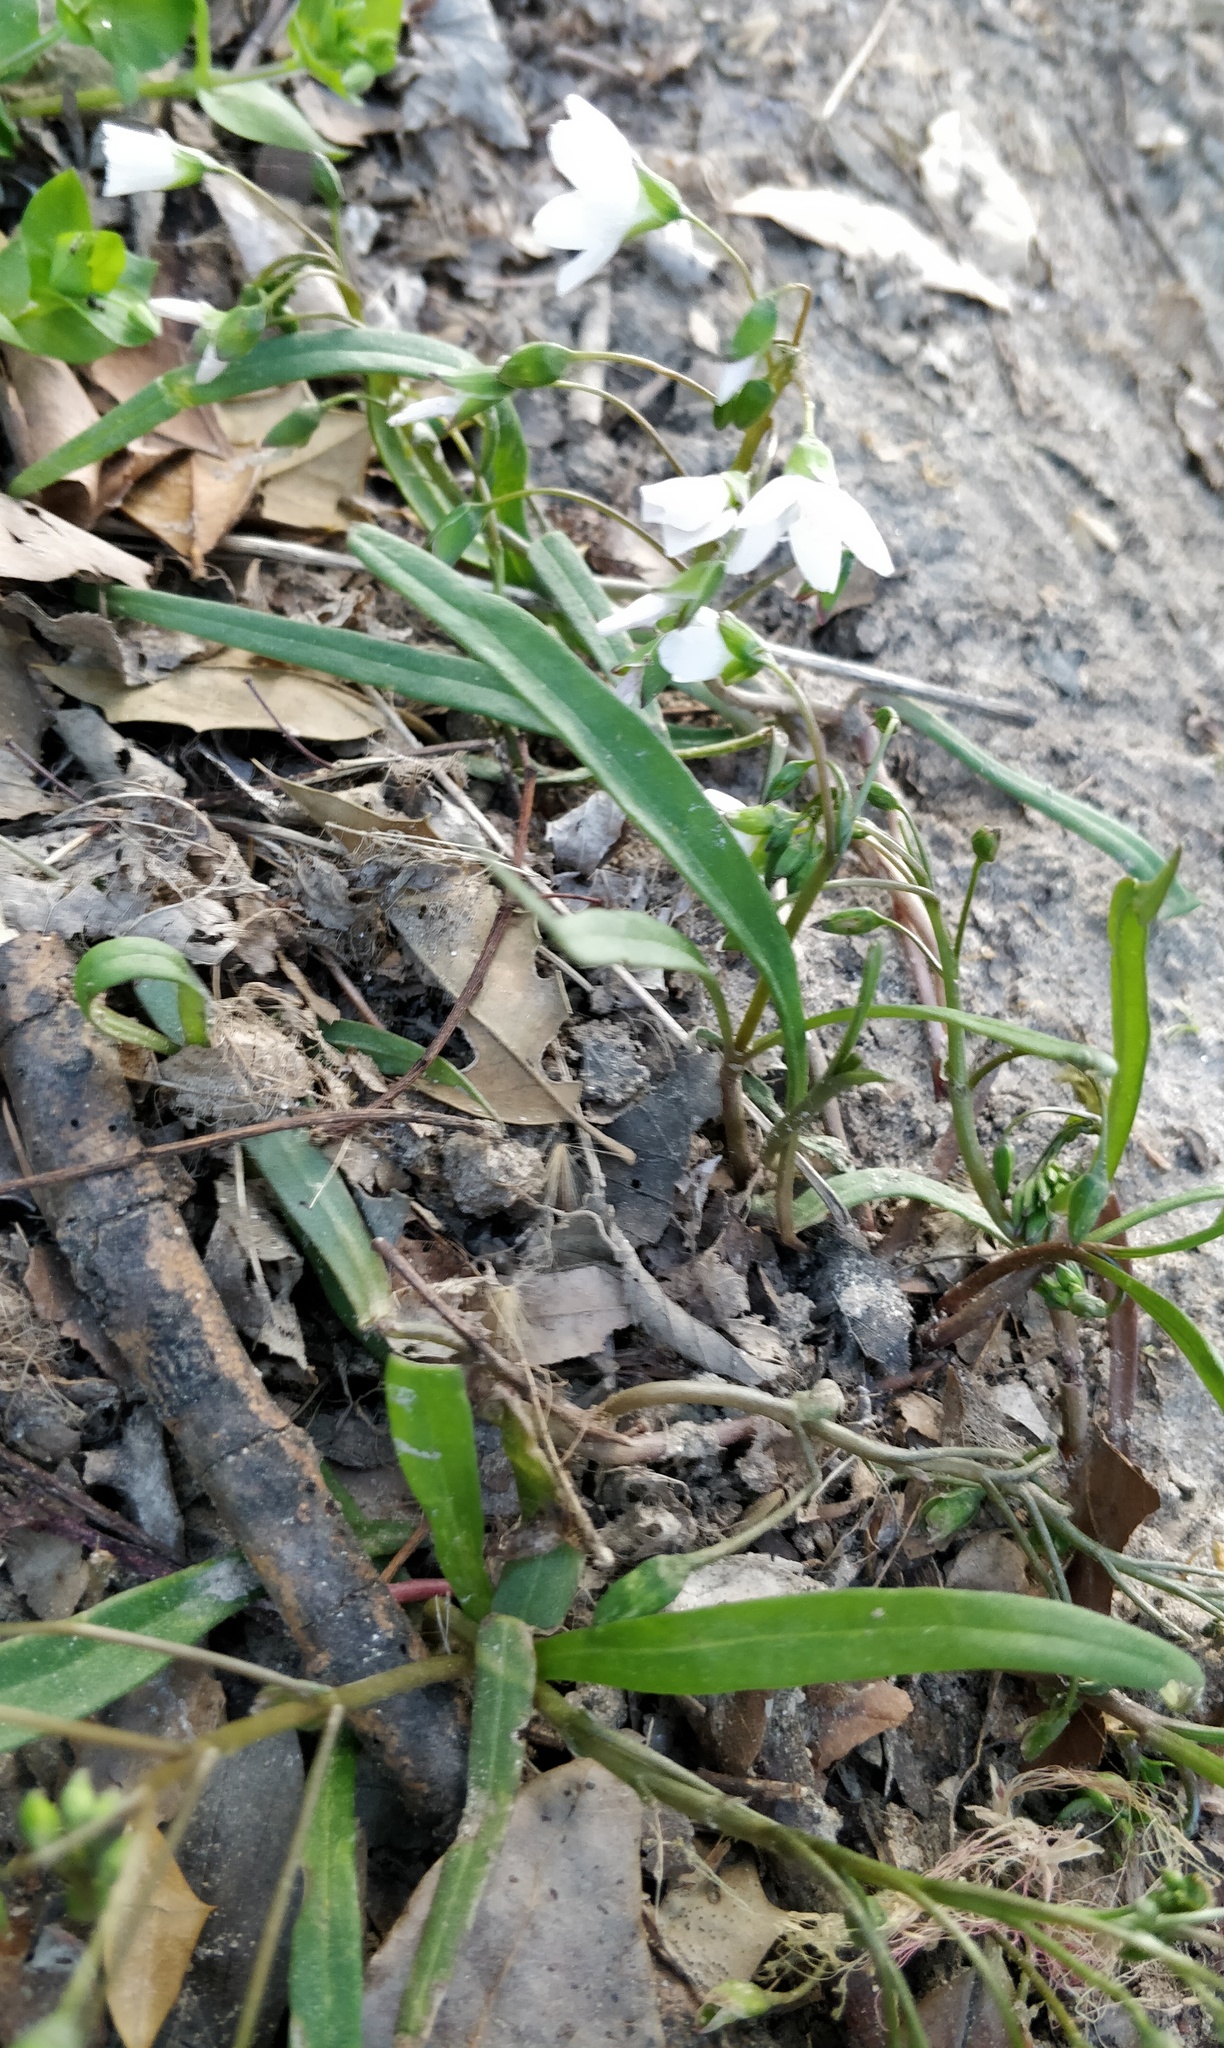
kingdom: Plantae
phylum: Tracheophyta
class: Magnoliopsida
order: Caryophyllales
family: Montiaceae
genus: Claytonia
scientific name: Claytonia virginica
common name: Virginia springbeauty
